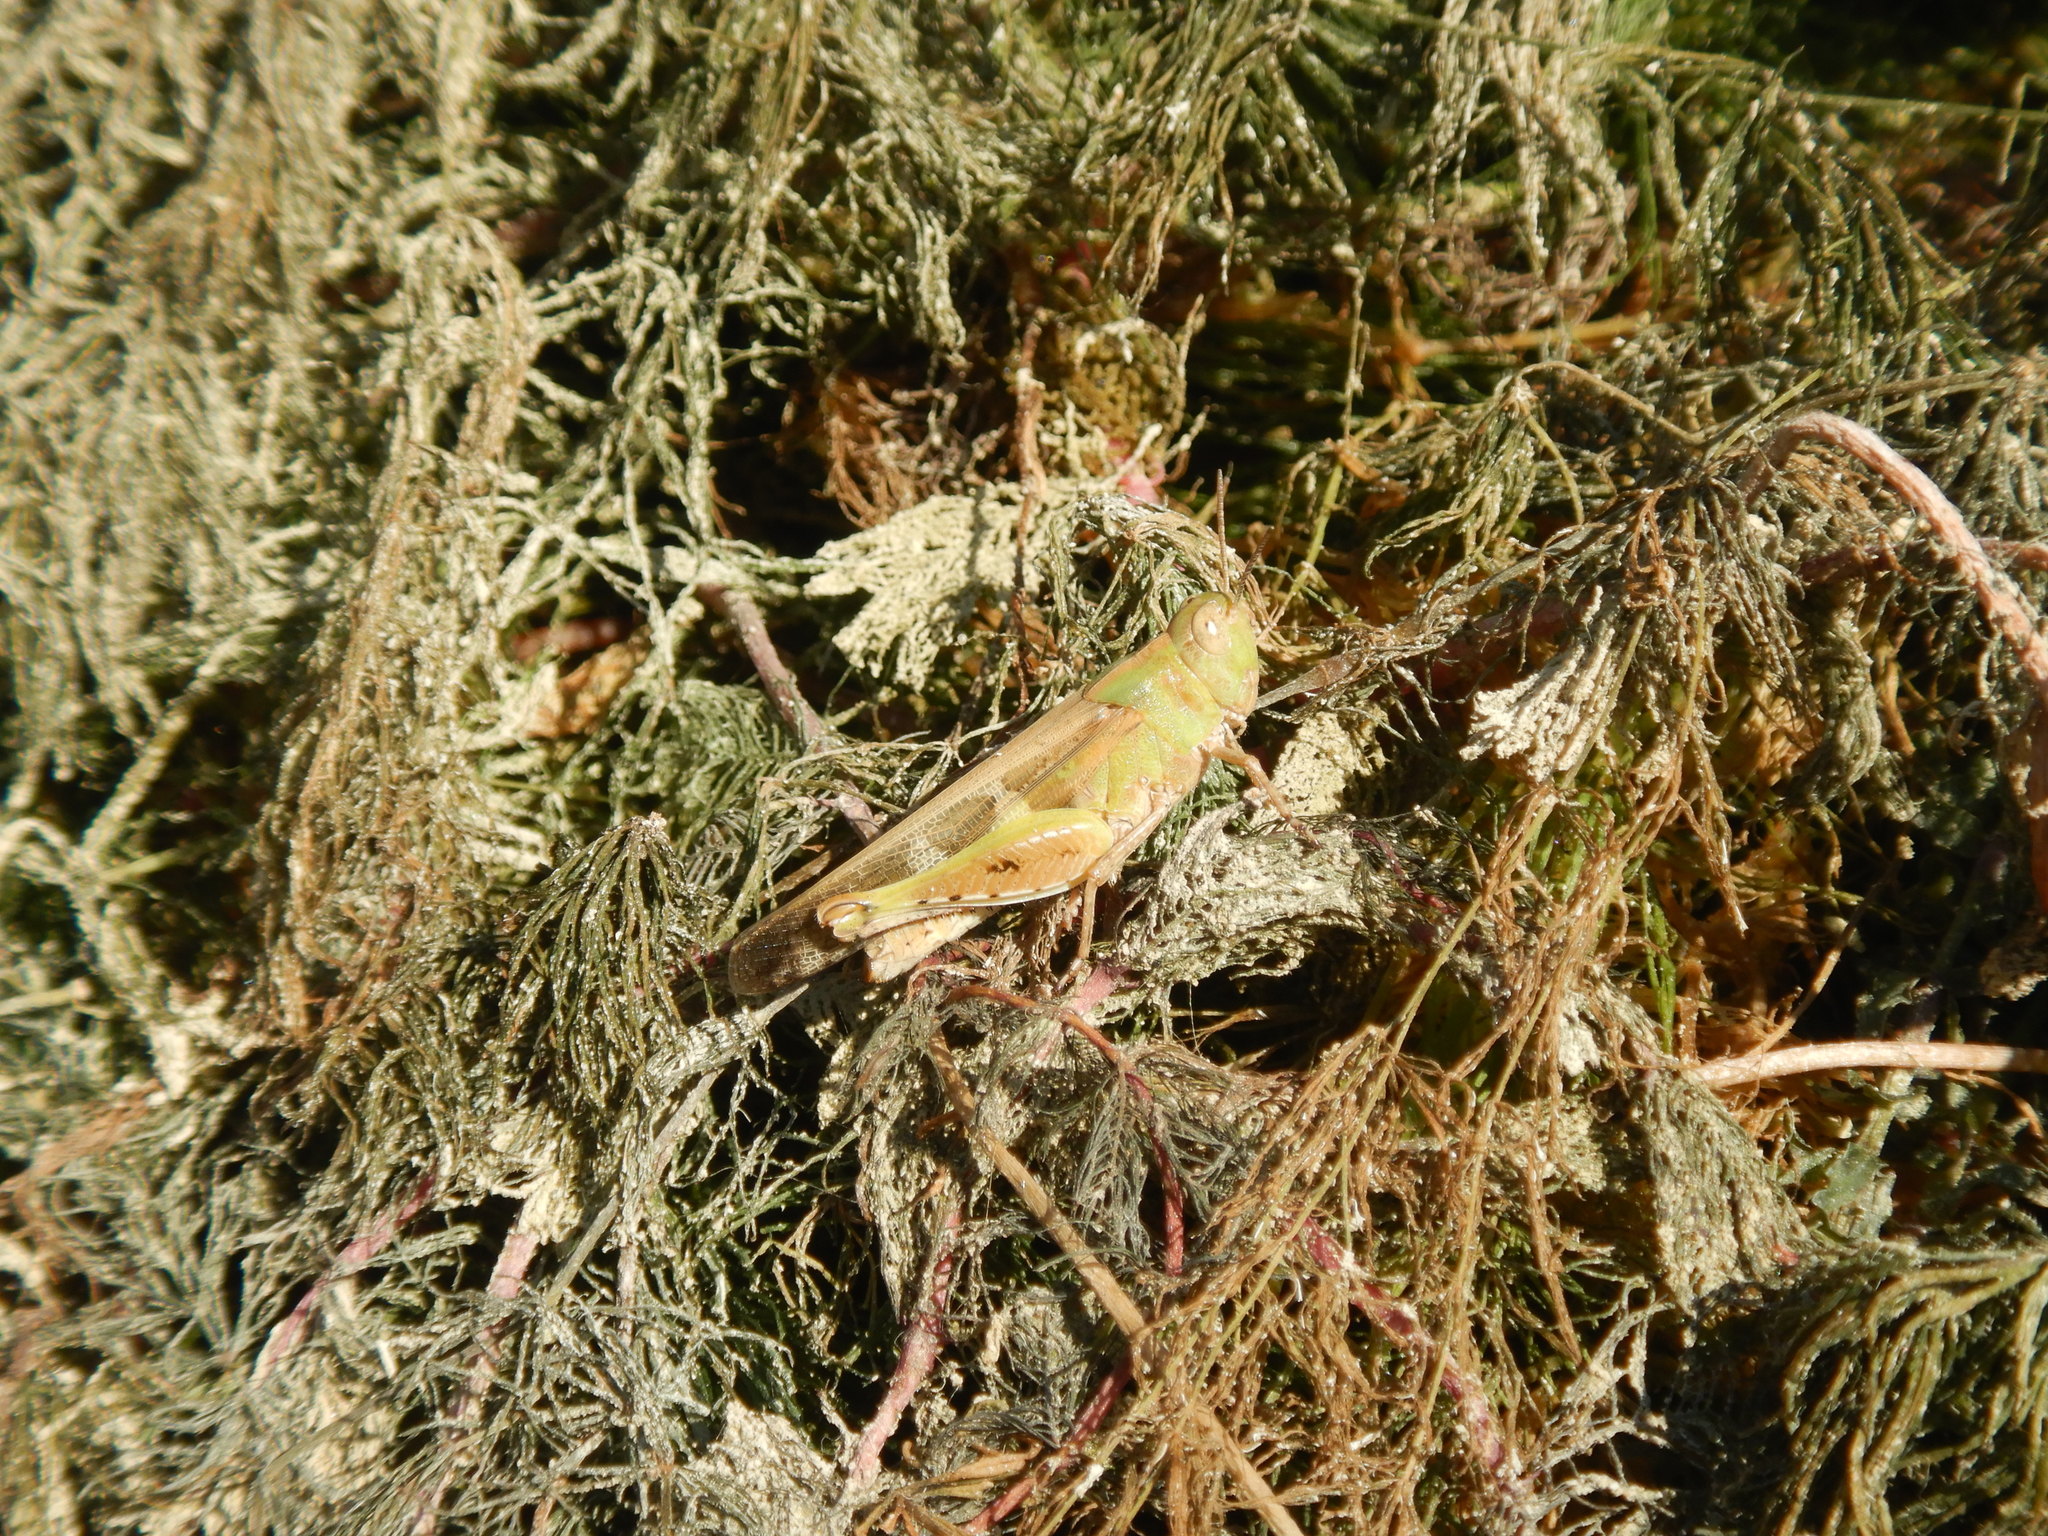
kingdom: Animalia
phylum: Arthropoda
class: Insecta
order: Orthoptera
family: Acrididae
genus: Aiolopus
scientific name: Aiolopus strepens
